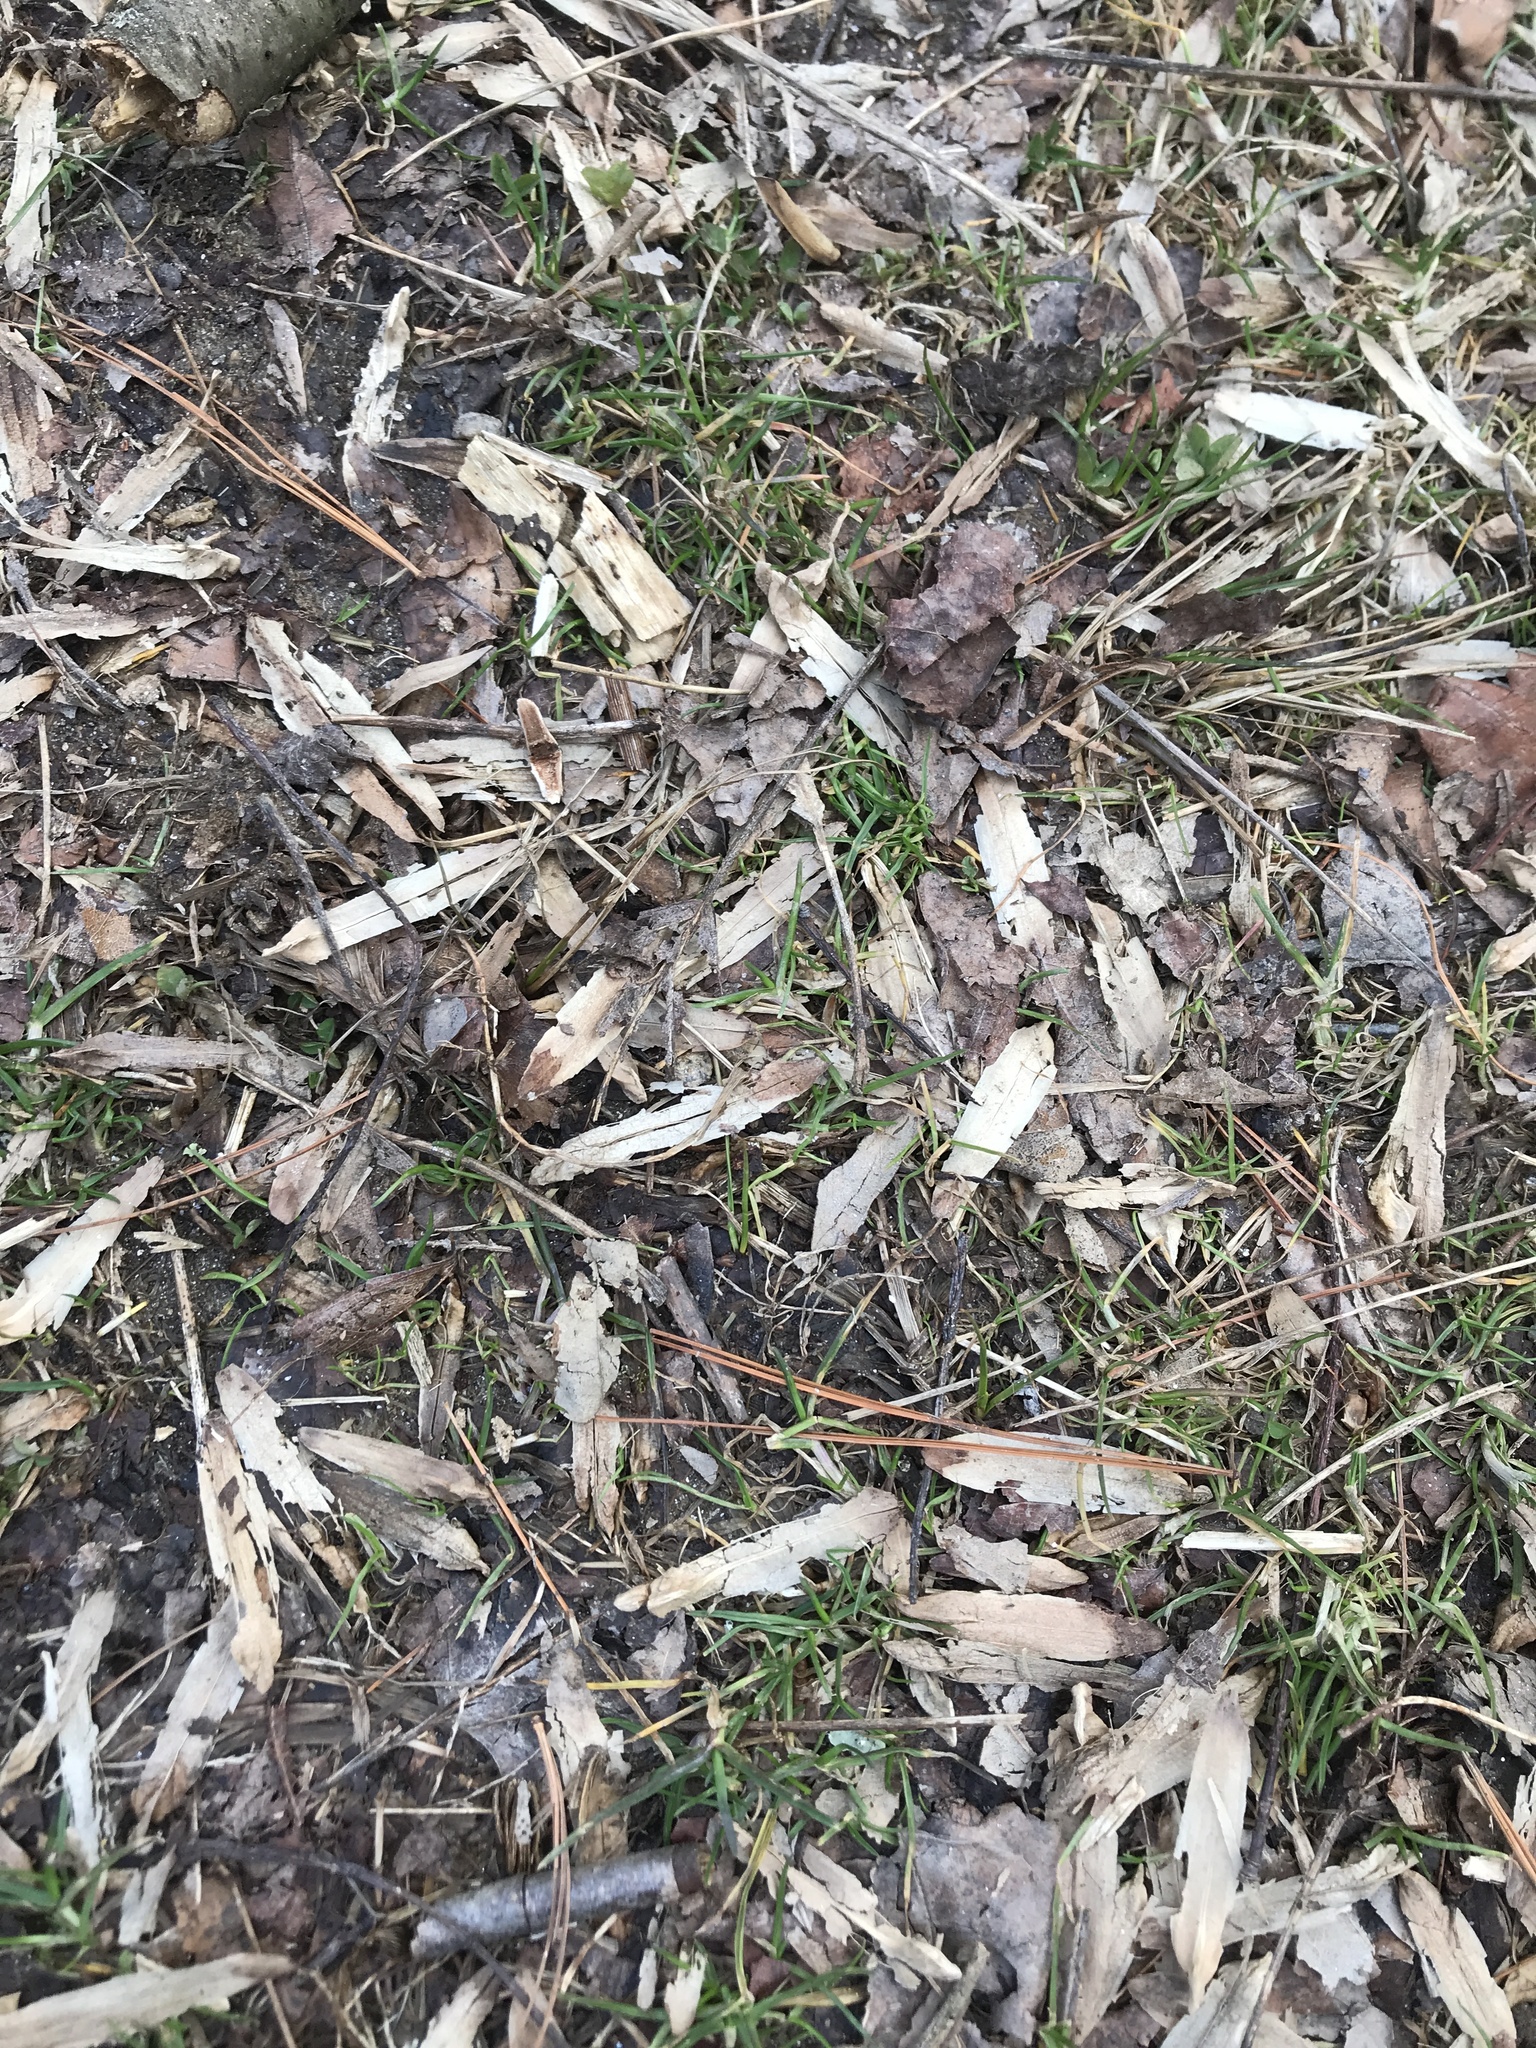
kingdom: Plantae
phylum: Tracheophyta
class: Magnoliopsida
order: Magnoliales
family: Magnoliaceae
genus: Liriodendron
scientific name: Liriodendron tulipifera
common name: Tulip tree
